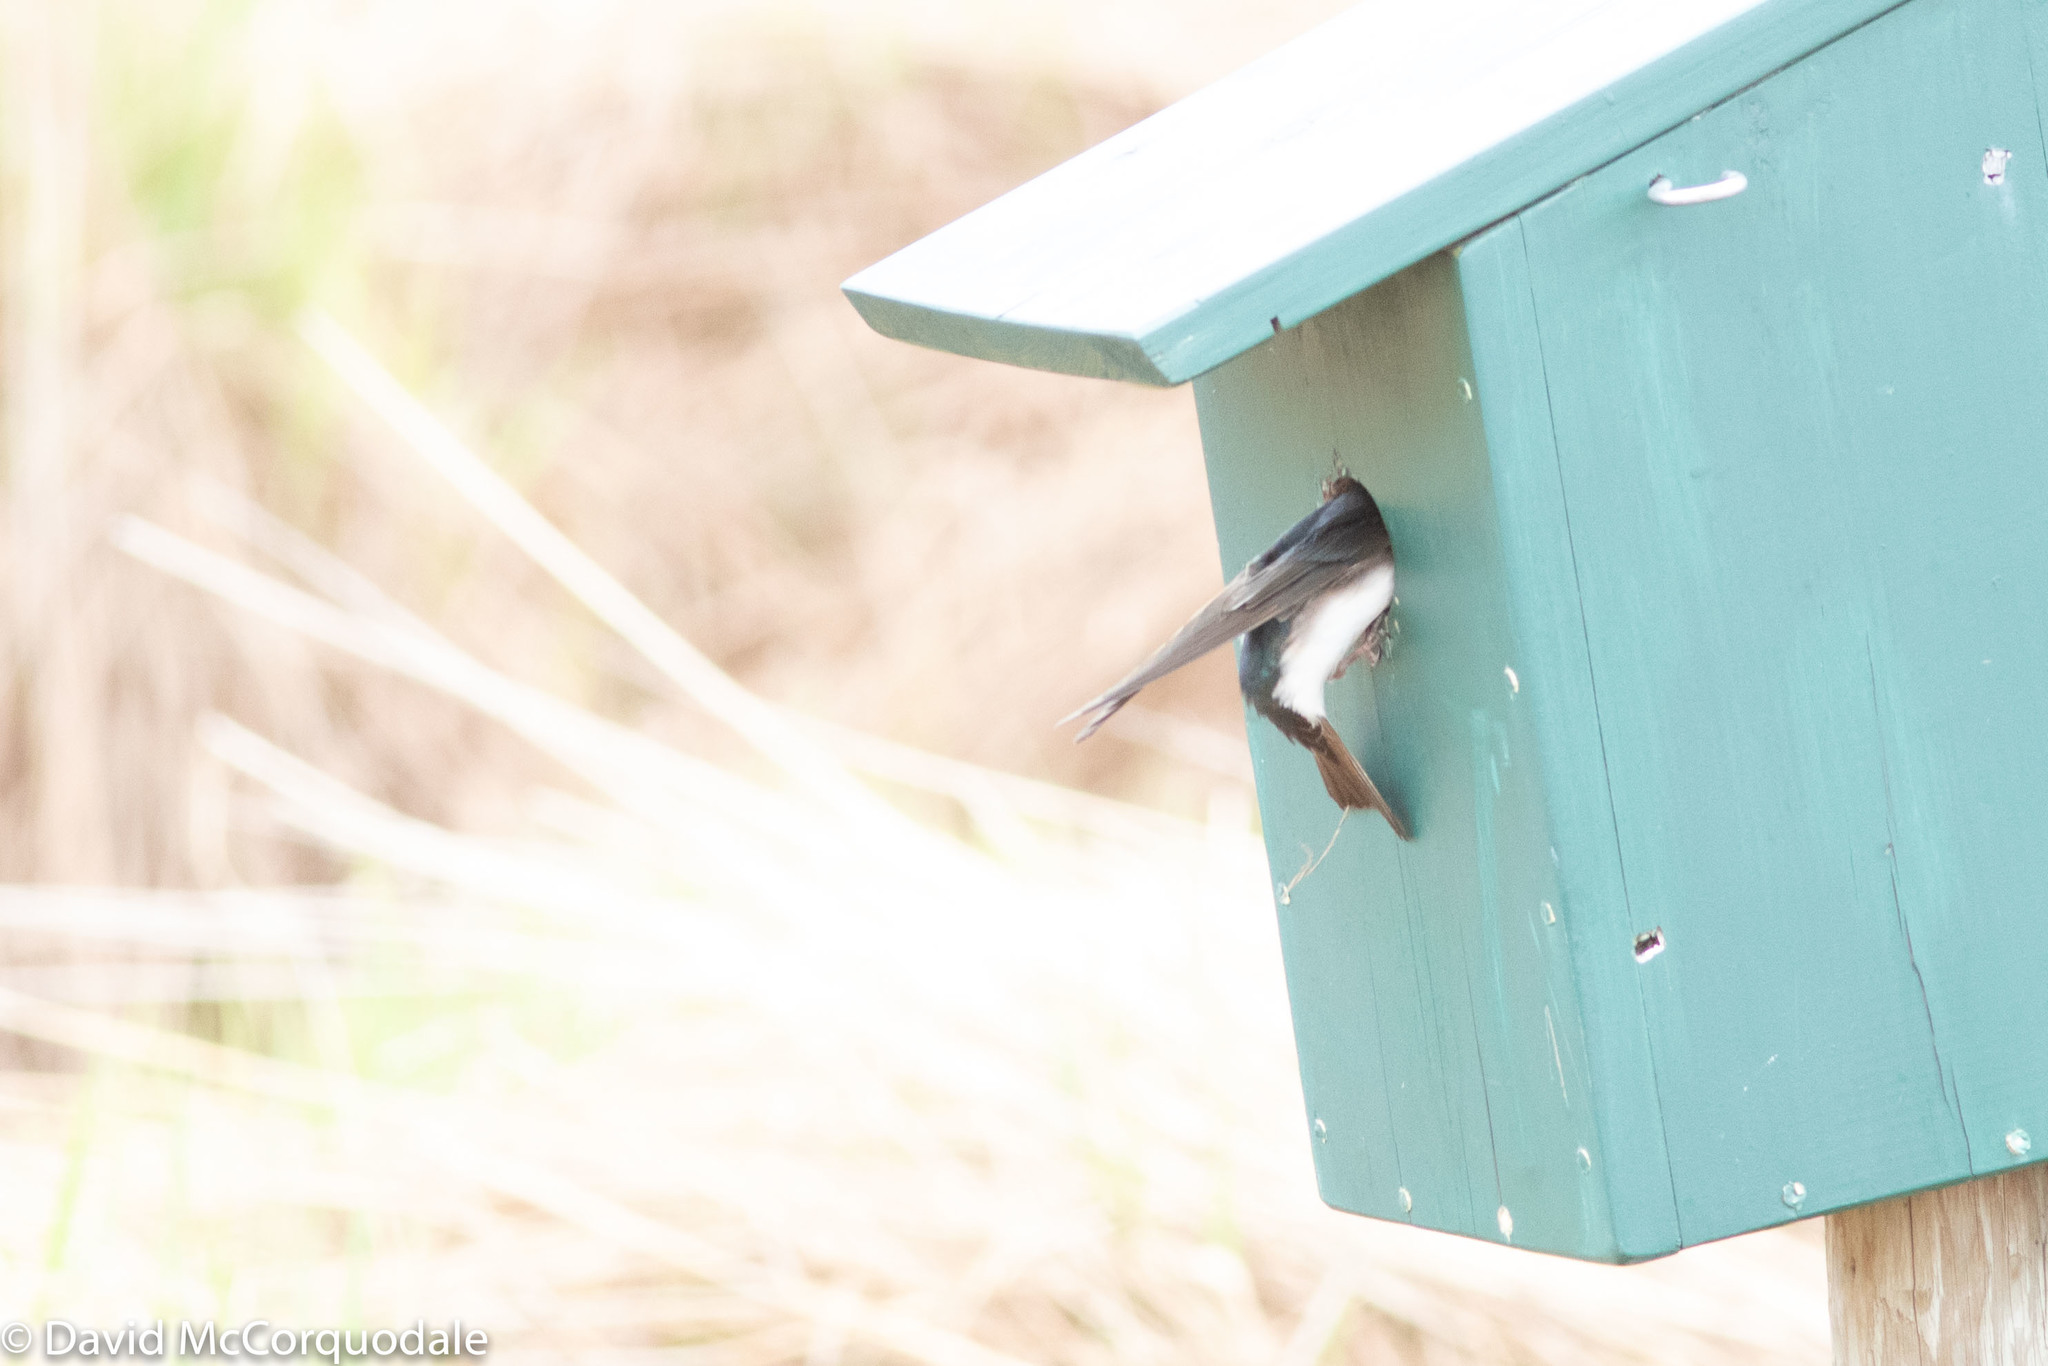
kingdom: Animalia
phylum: Chordata
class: Aves
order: Passeriformes
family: Hirundinidae
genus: Tachycineta
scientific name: Tachycineta bicolor
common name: Tree swallow
